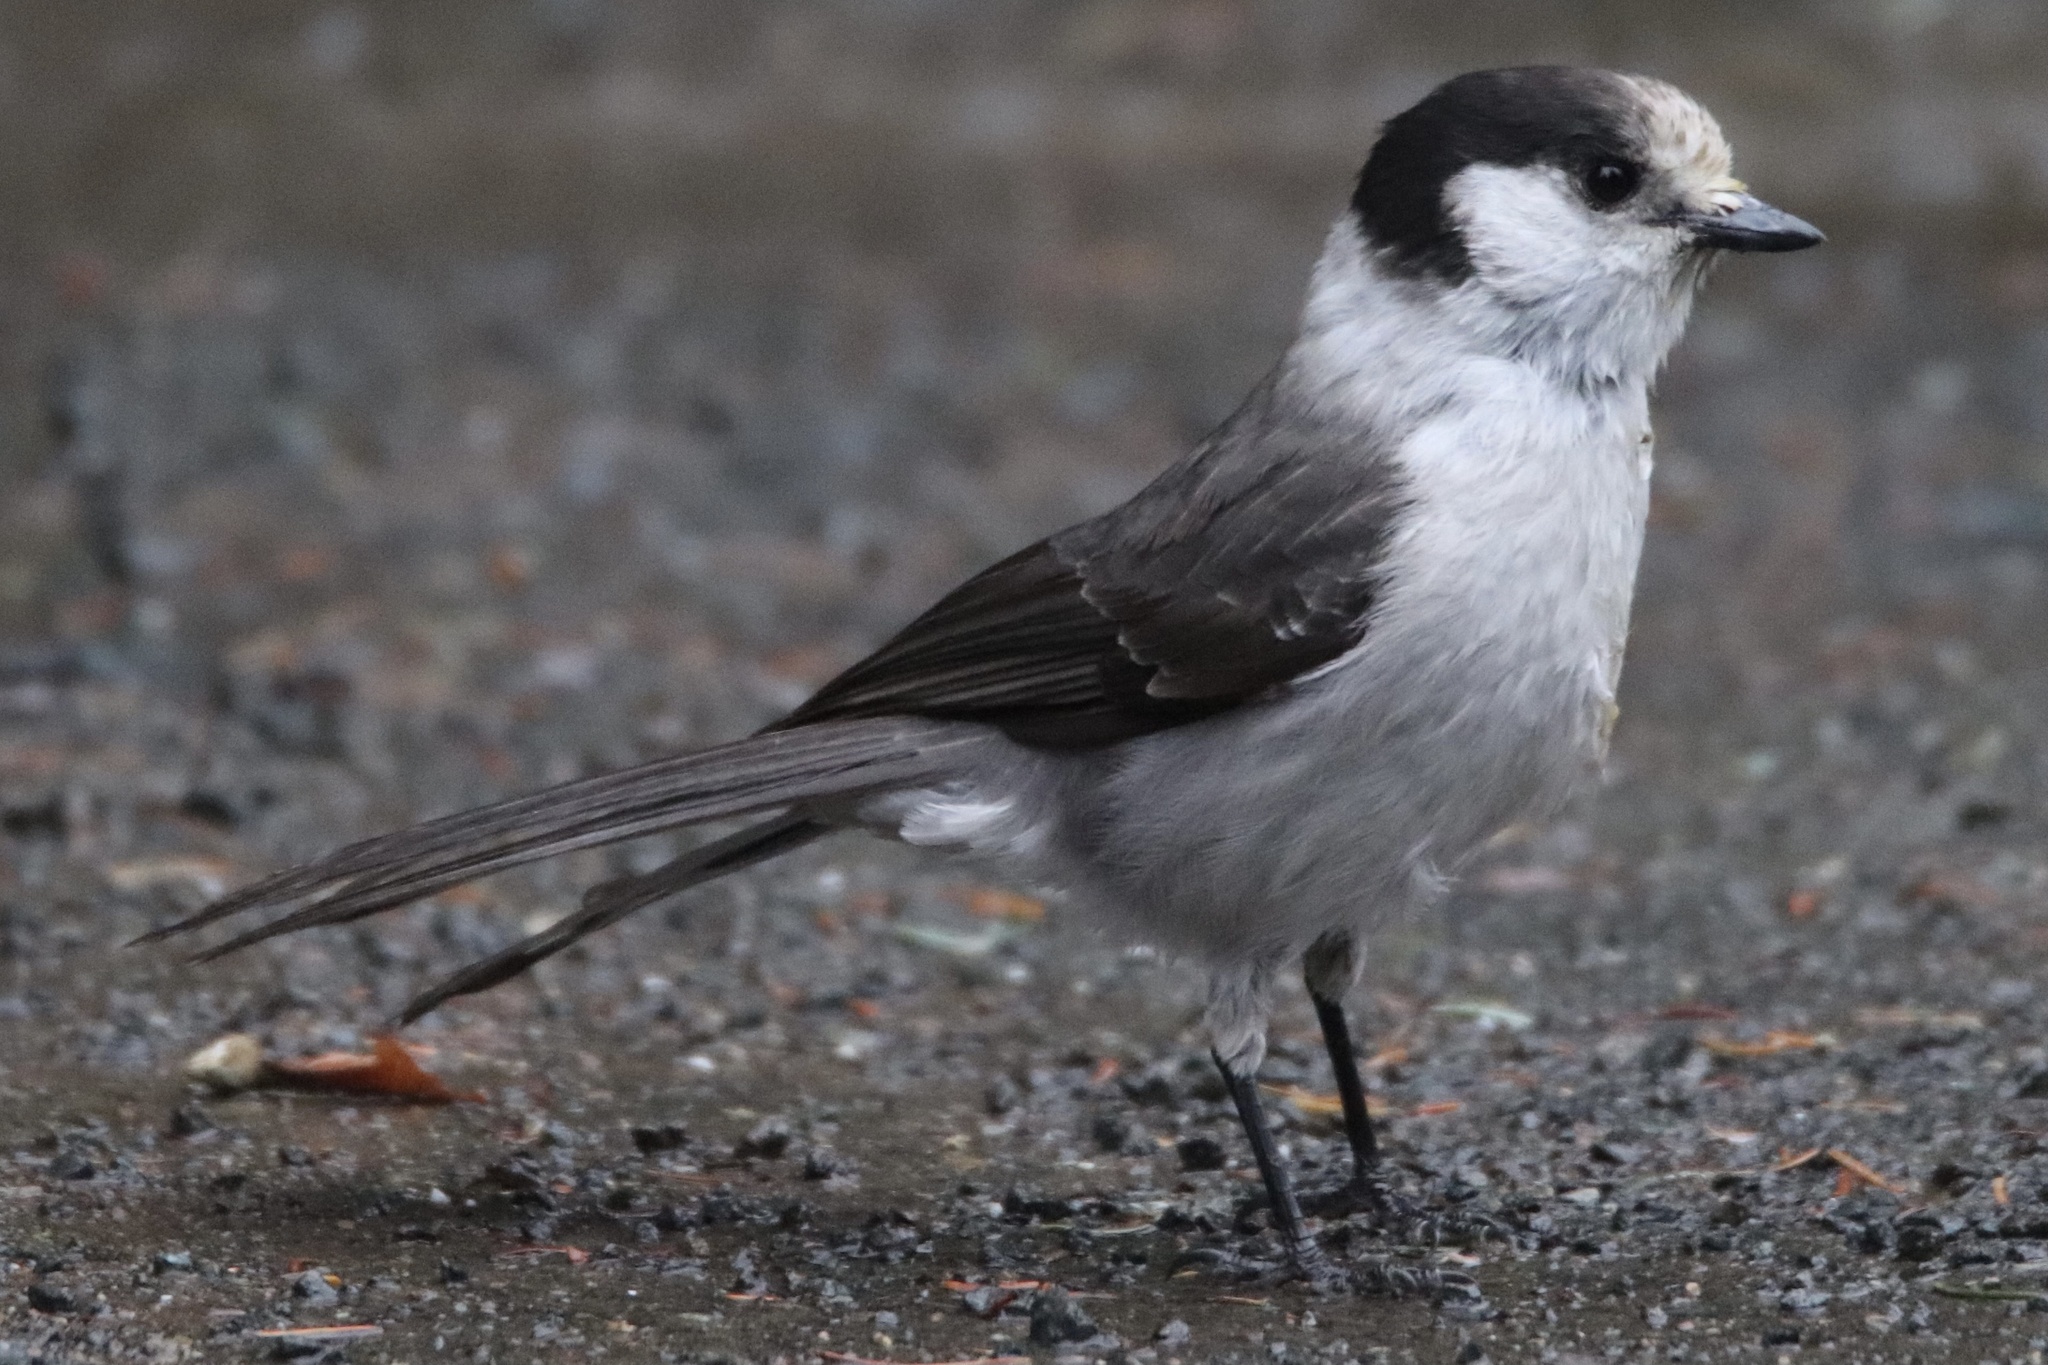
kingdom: Animalia
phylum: Chordata
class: Aves
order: Passeriformes
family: Corvidae
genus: Perisoreus
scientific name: Perisoreus canadensis
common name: Gray jay
